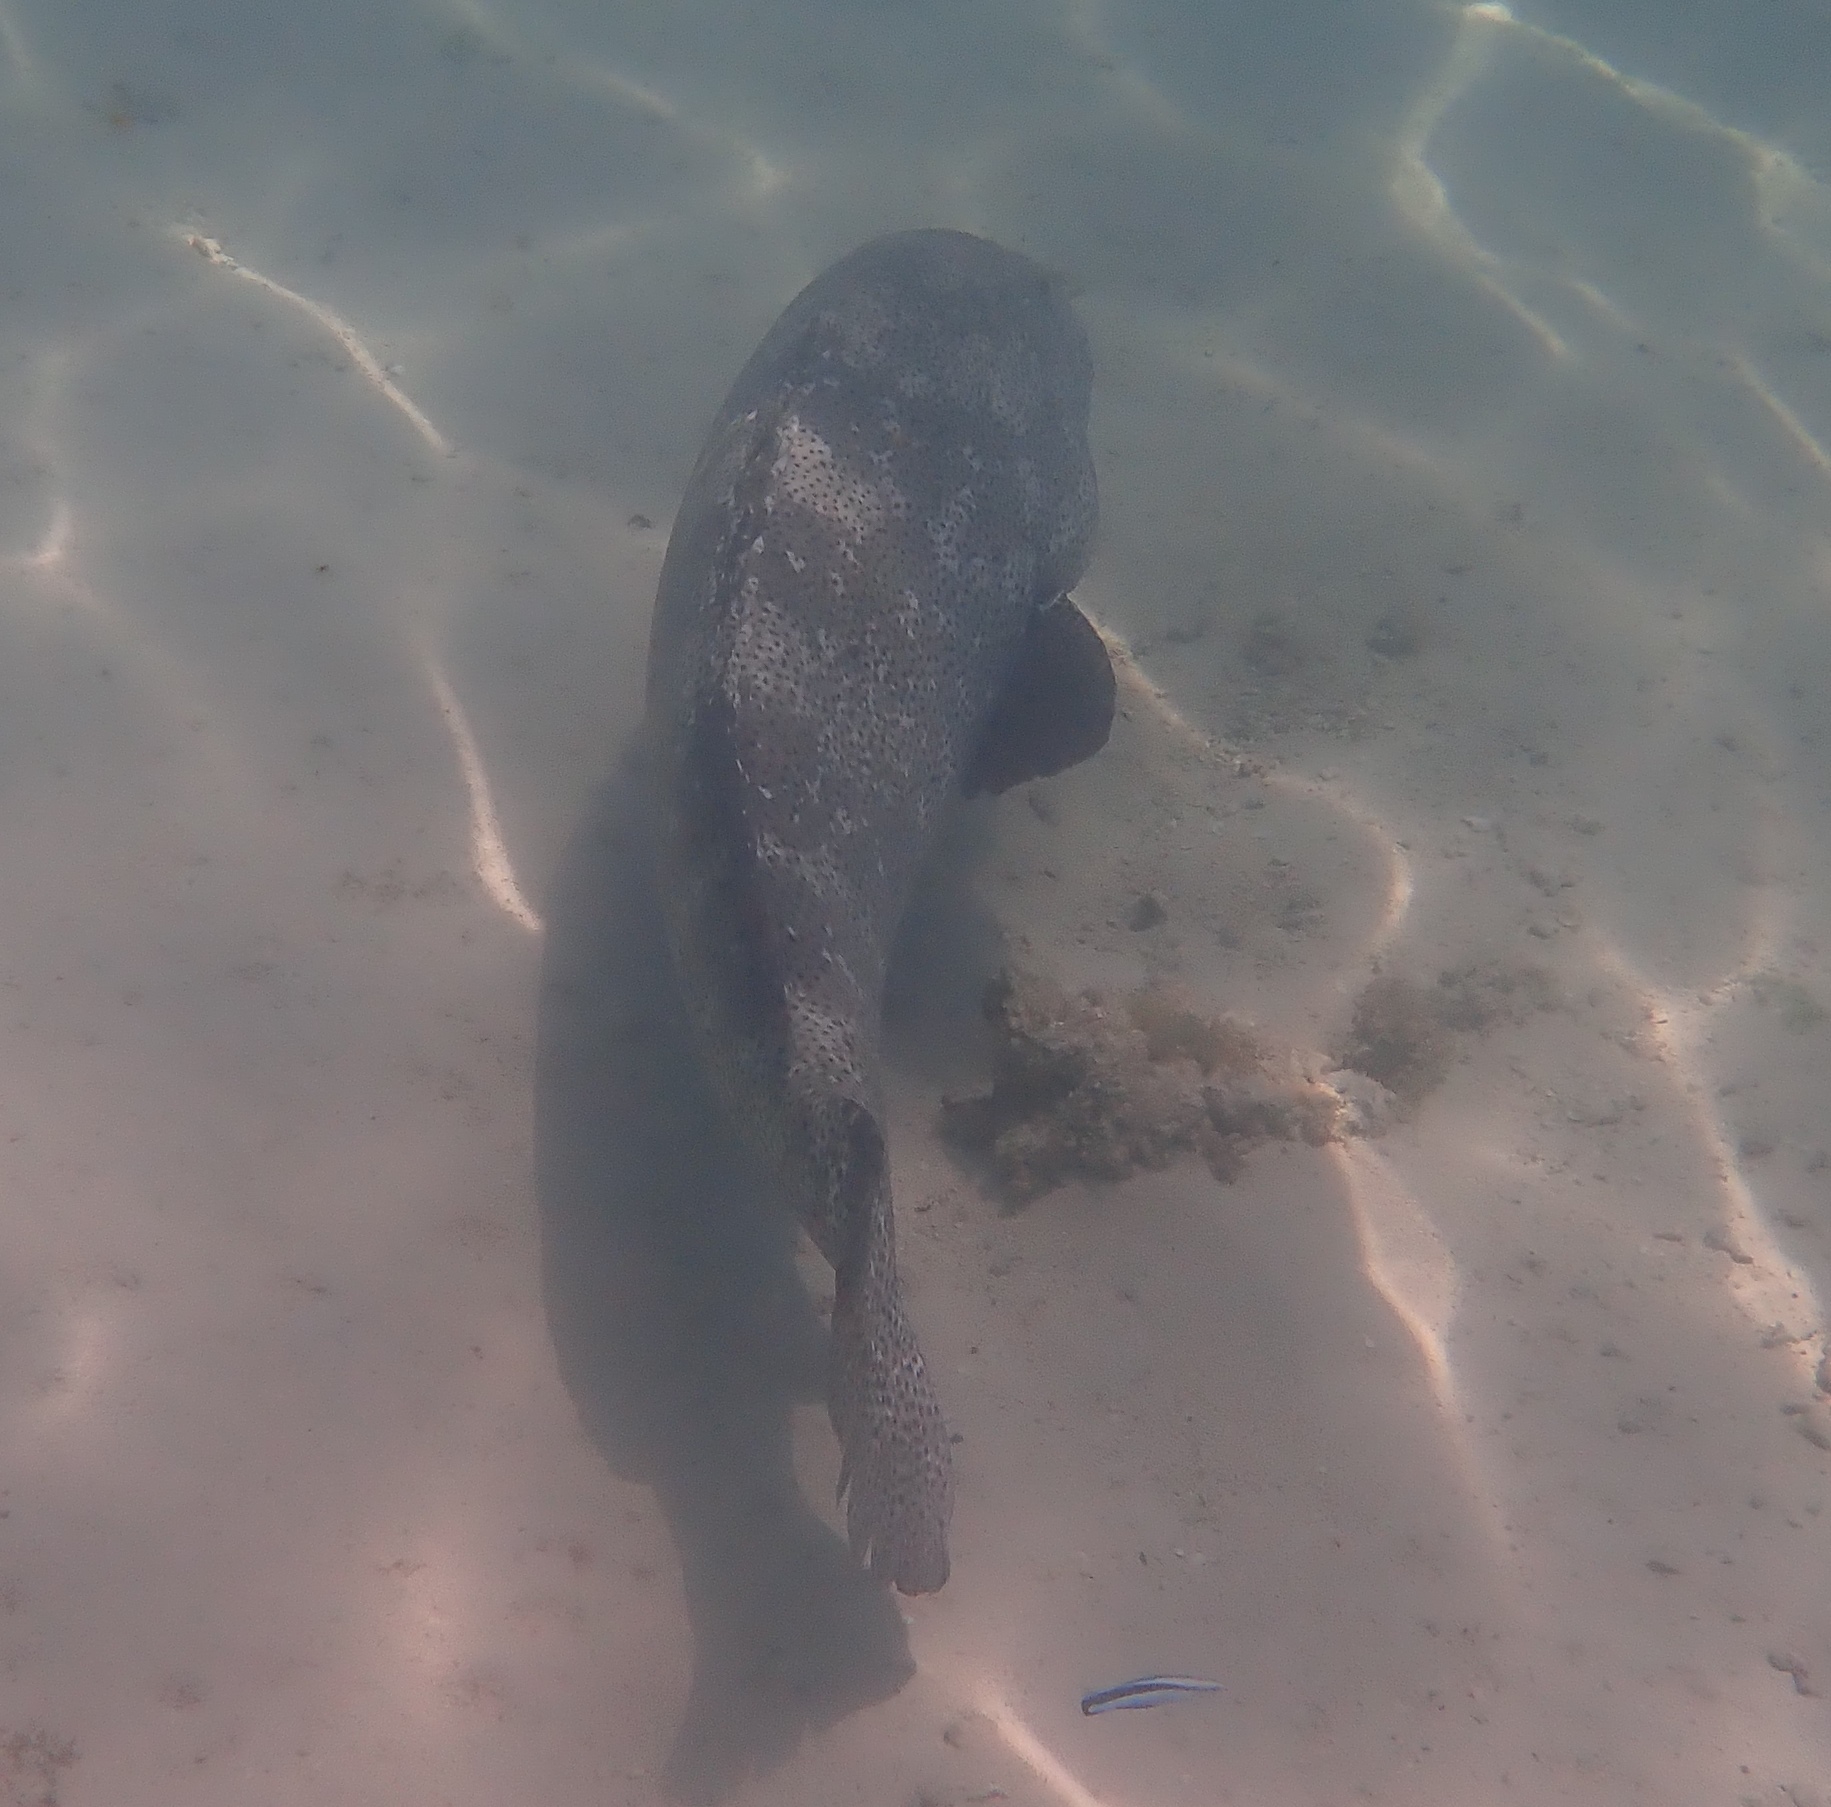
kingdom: Animalia
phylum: Chordata
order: Perciformes
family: Serranidae
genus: Epinephelus
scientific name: Epinephelus malabaricus
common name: Malabar grouper
